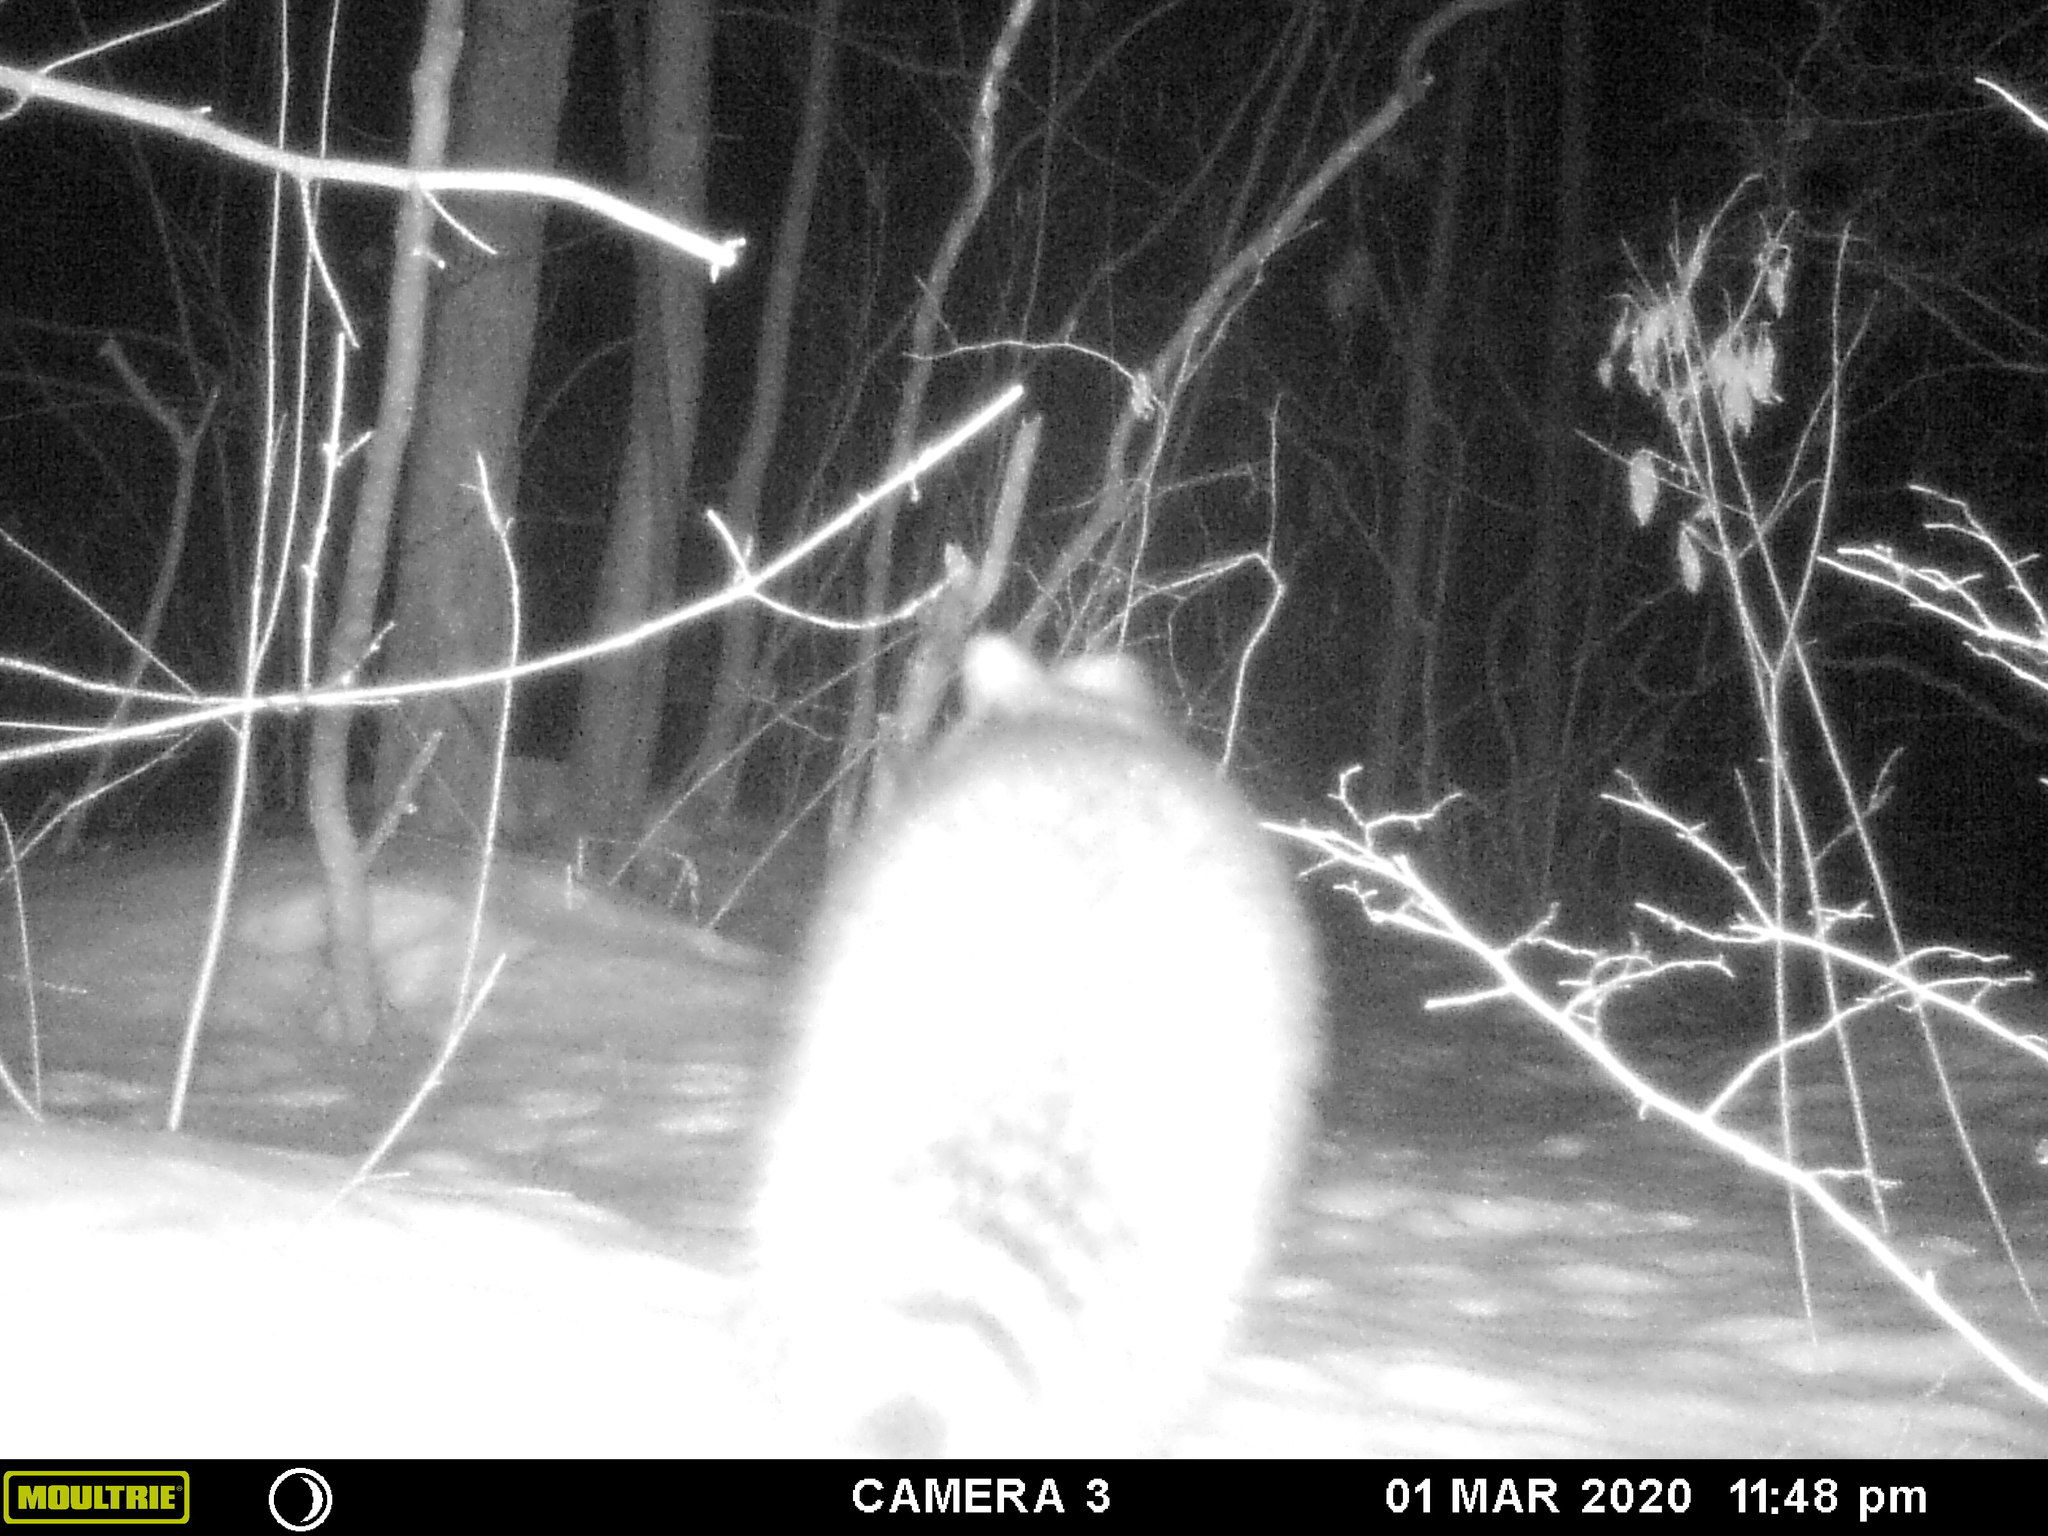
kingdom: Animalia
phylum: Chordata
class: Mammalia
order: Carnivora
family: Procyonidae
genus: Procyon
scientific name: Procyon lotor
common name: Raccoon
